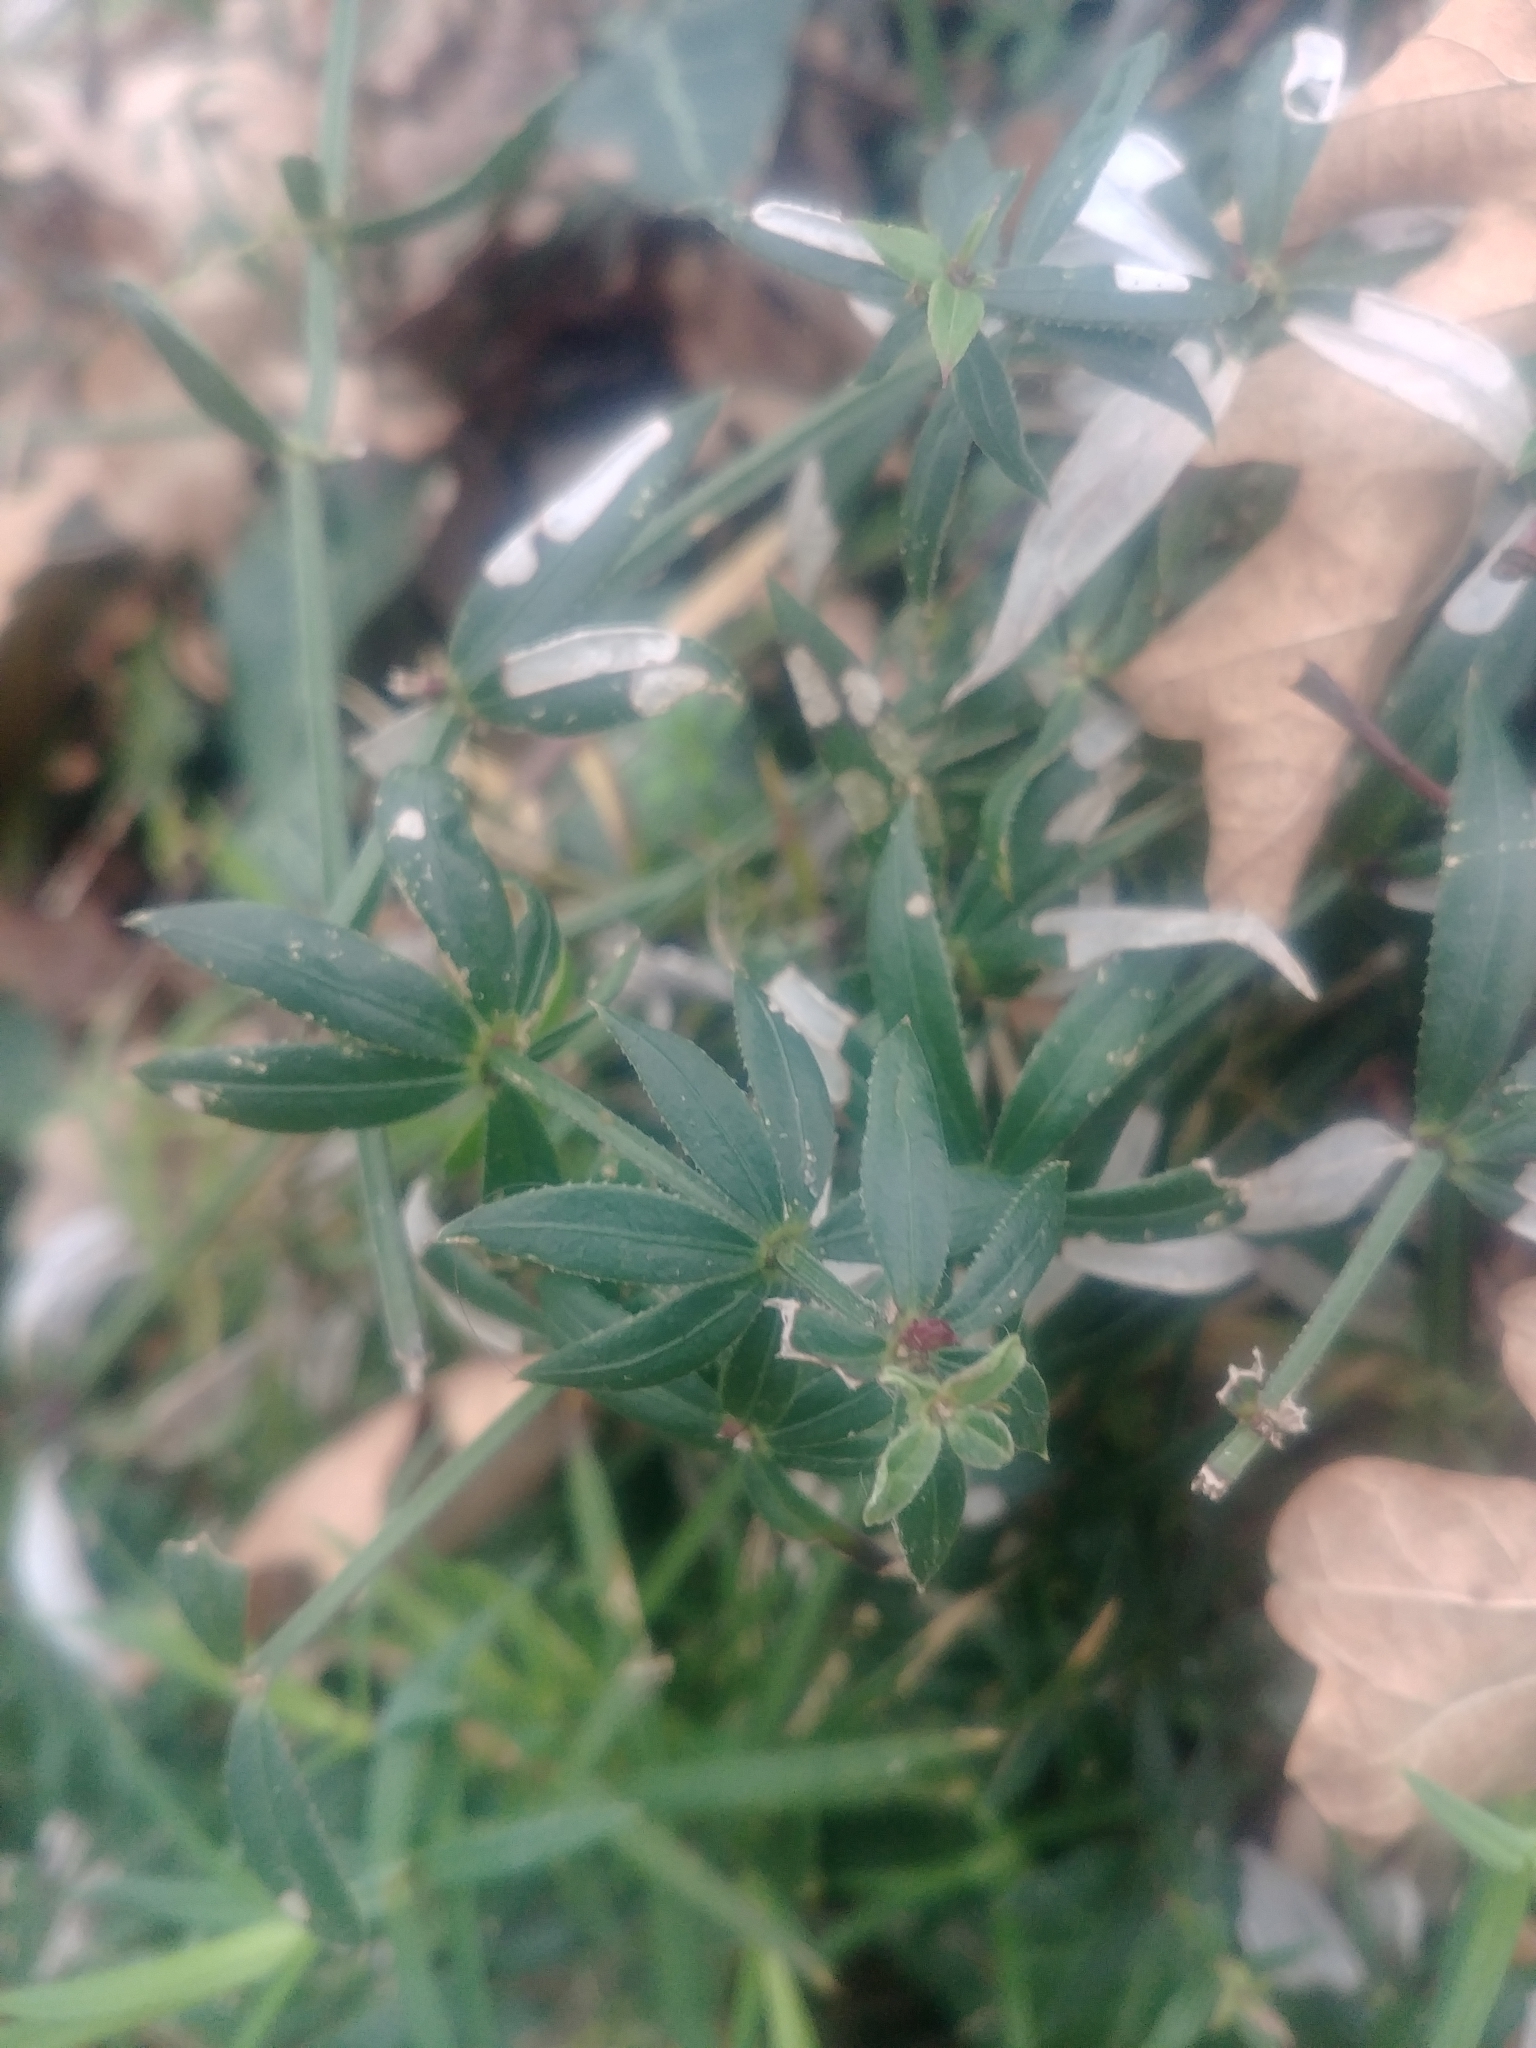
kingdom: Plantae
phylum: Tracheophyta
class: Magnoliopsida
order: Gentianales
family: Rubiaceae
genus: Rubia
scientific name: Rubia peregrina
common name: Wild madder
